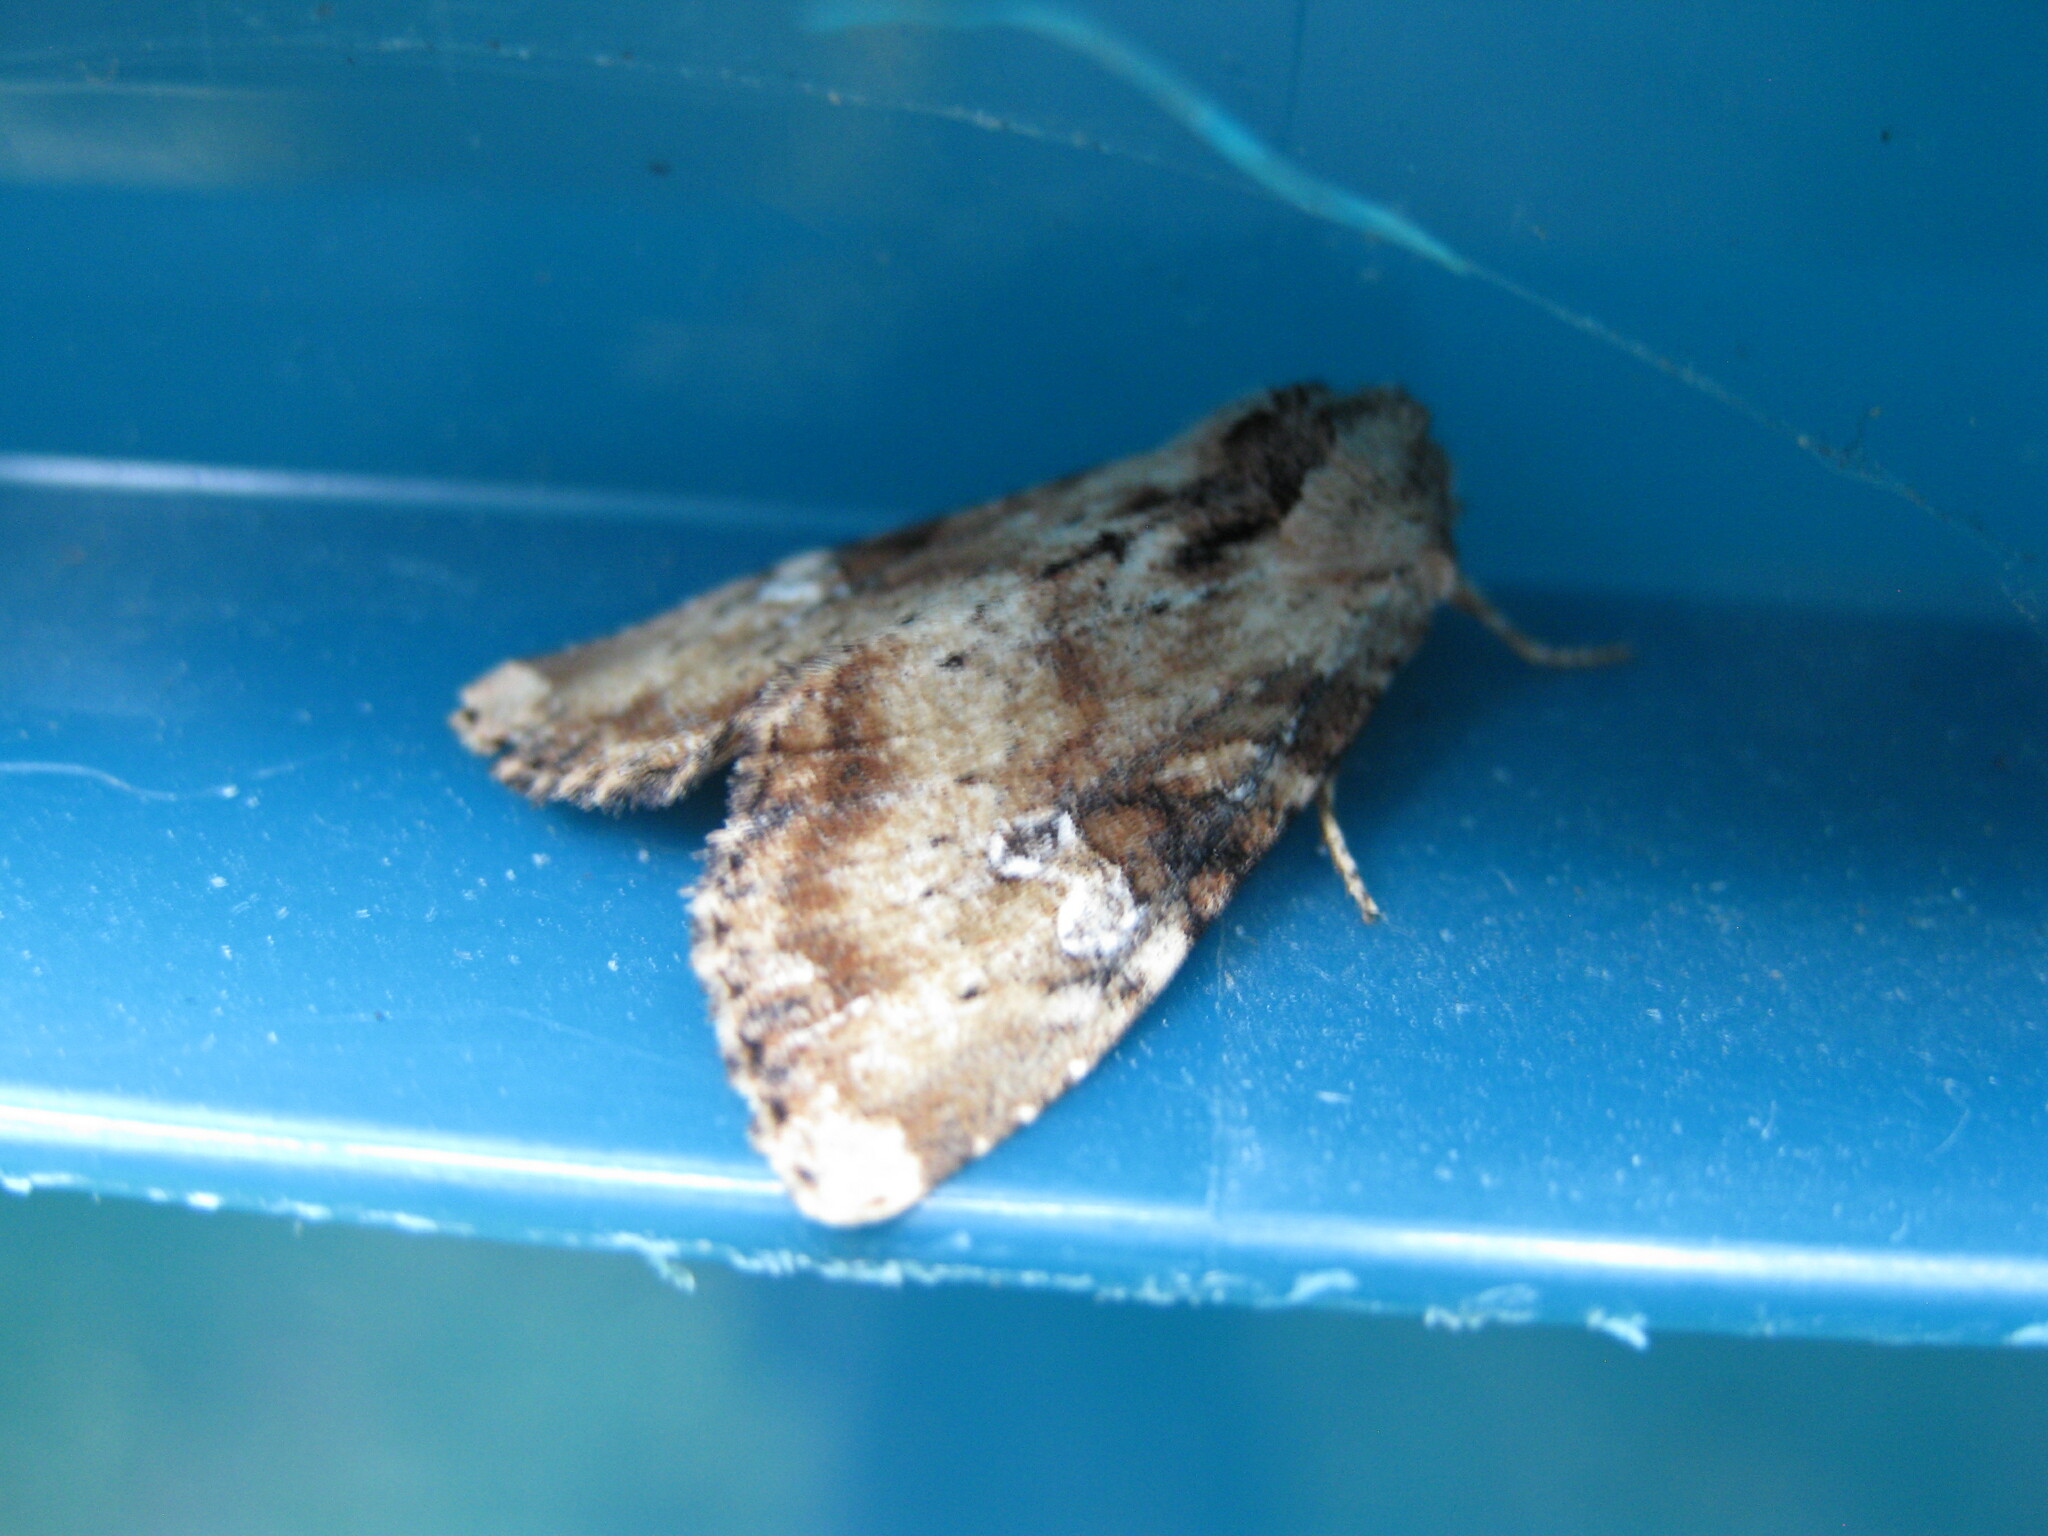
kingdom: Animalia
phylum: Arthropoda
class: Insecta
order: Lepidoptera
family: Noctuidae
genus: Loscopia
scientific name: Loscopia scolopacina
